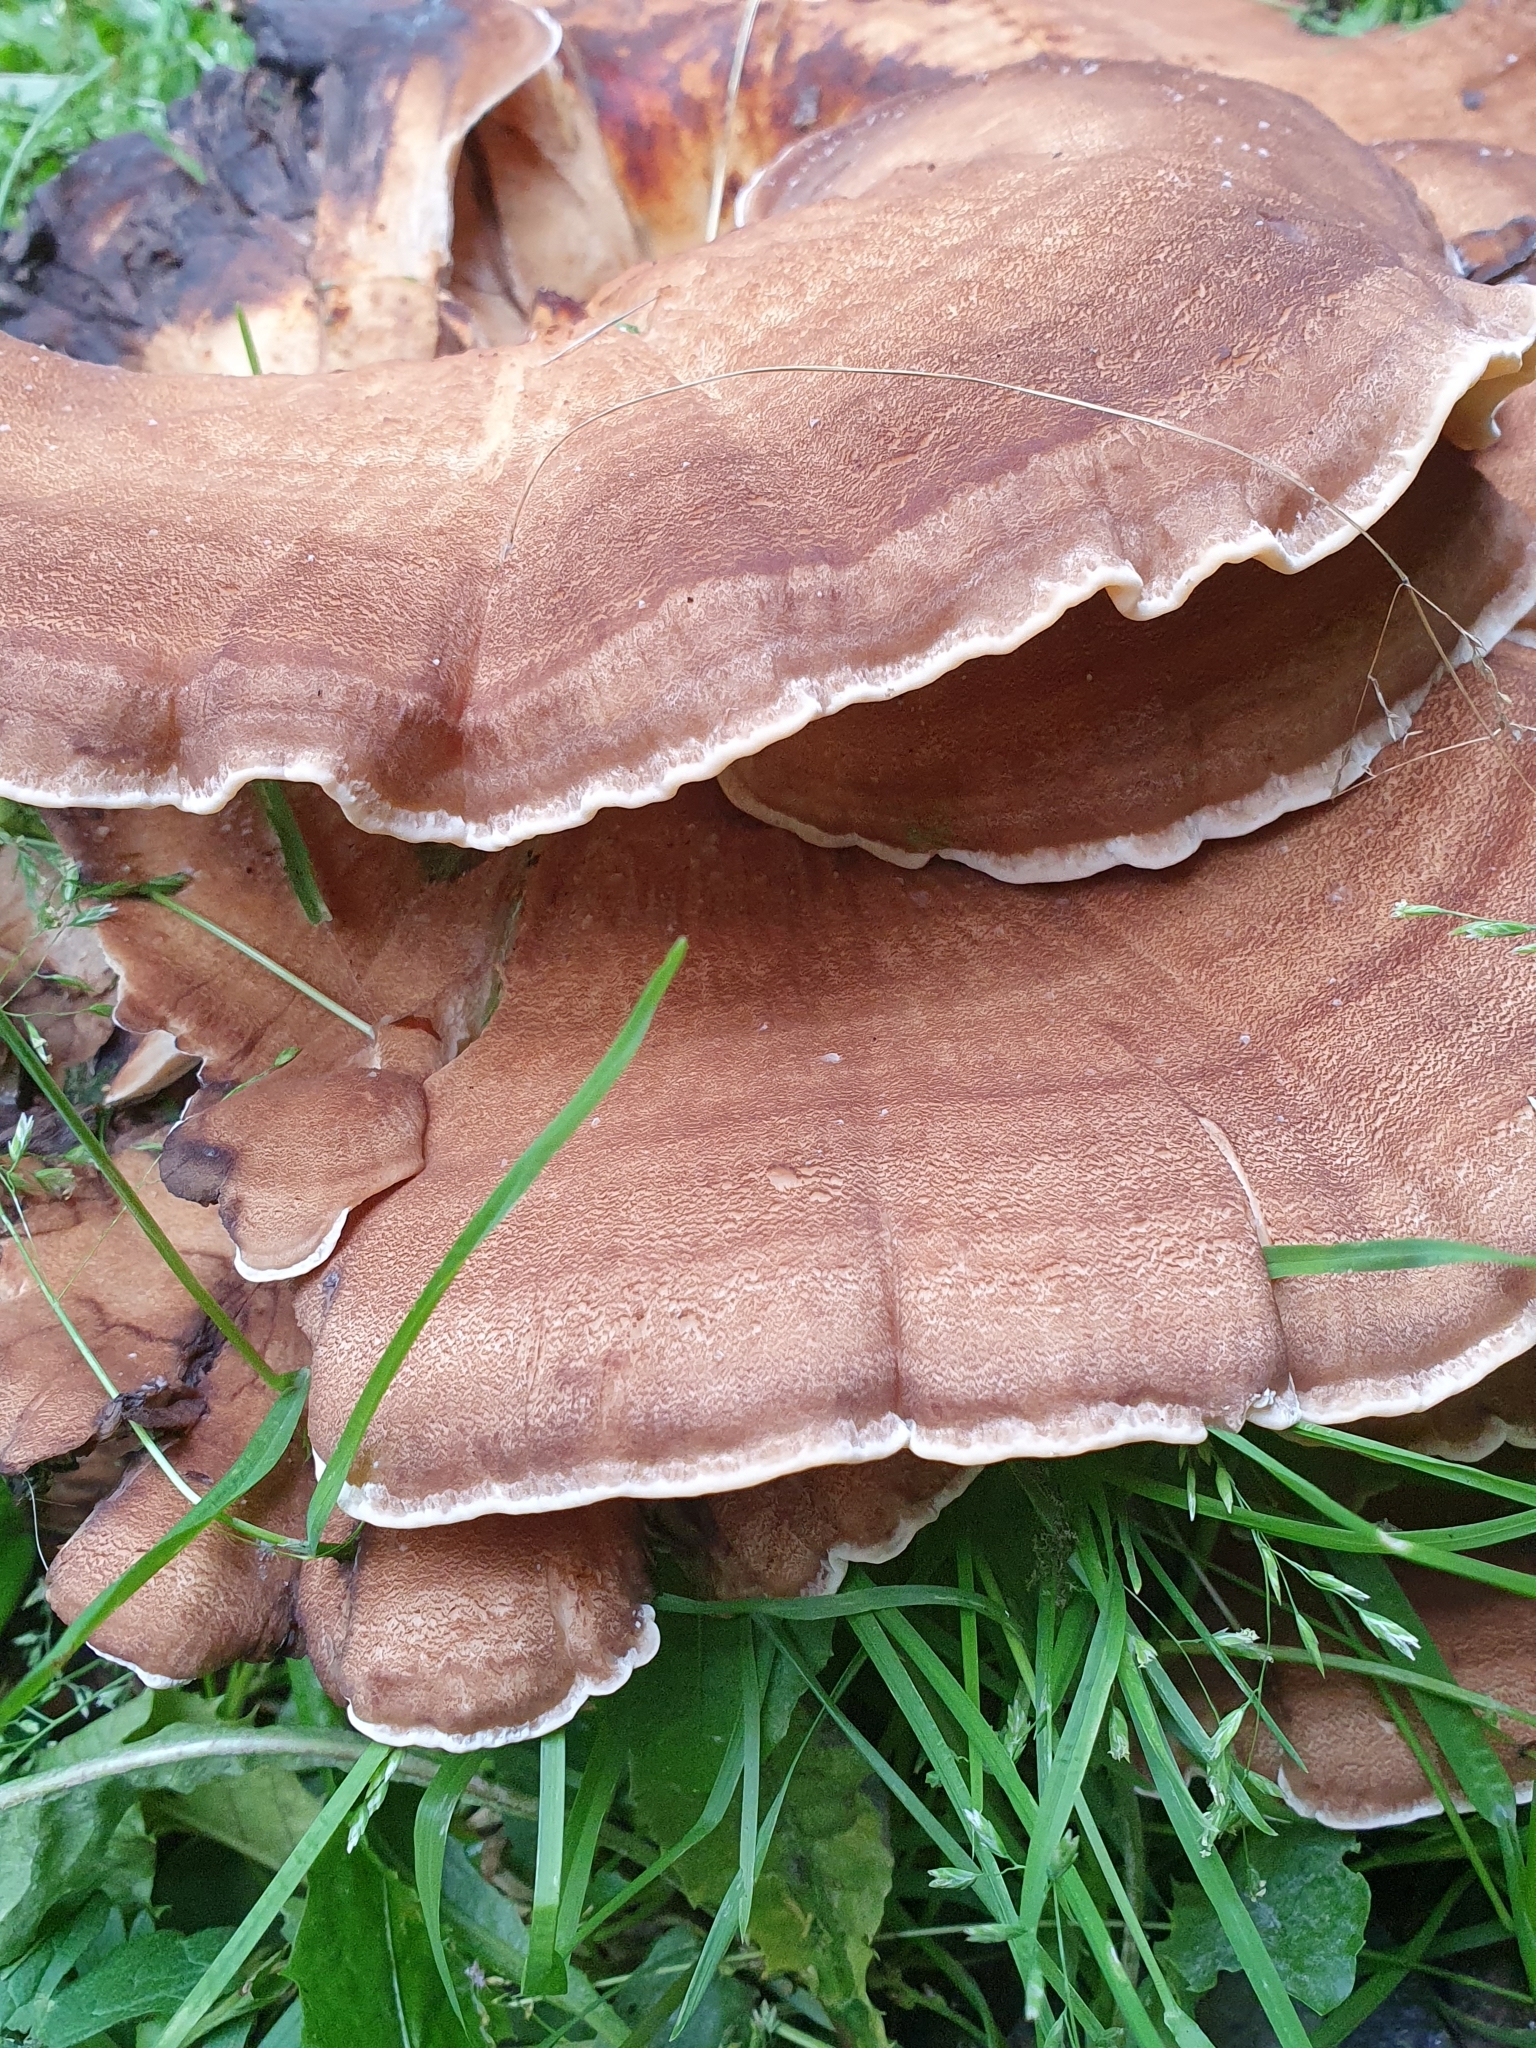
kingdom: Fungi
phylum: Basidiomycota
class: Agaricomycetes
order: Polyporales
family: Meripilaceae
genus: Meripilus
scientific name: Meripilus giganteus
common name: Giant polypore
